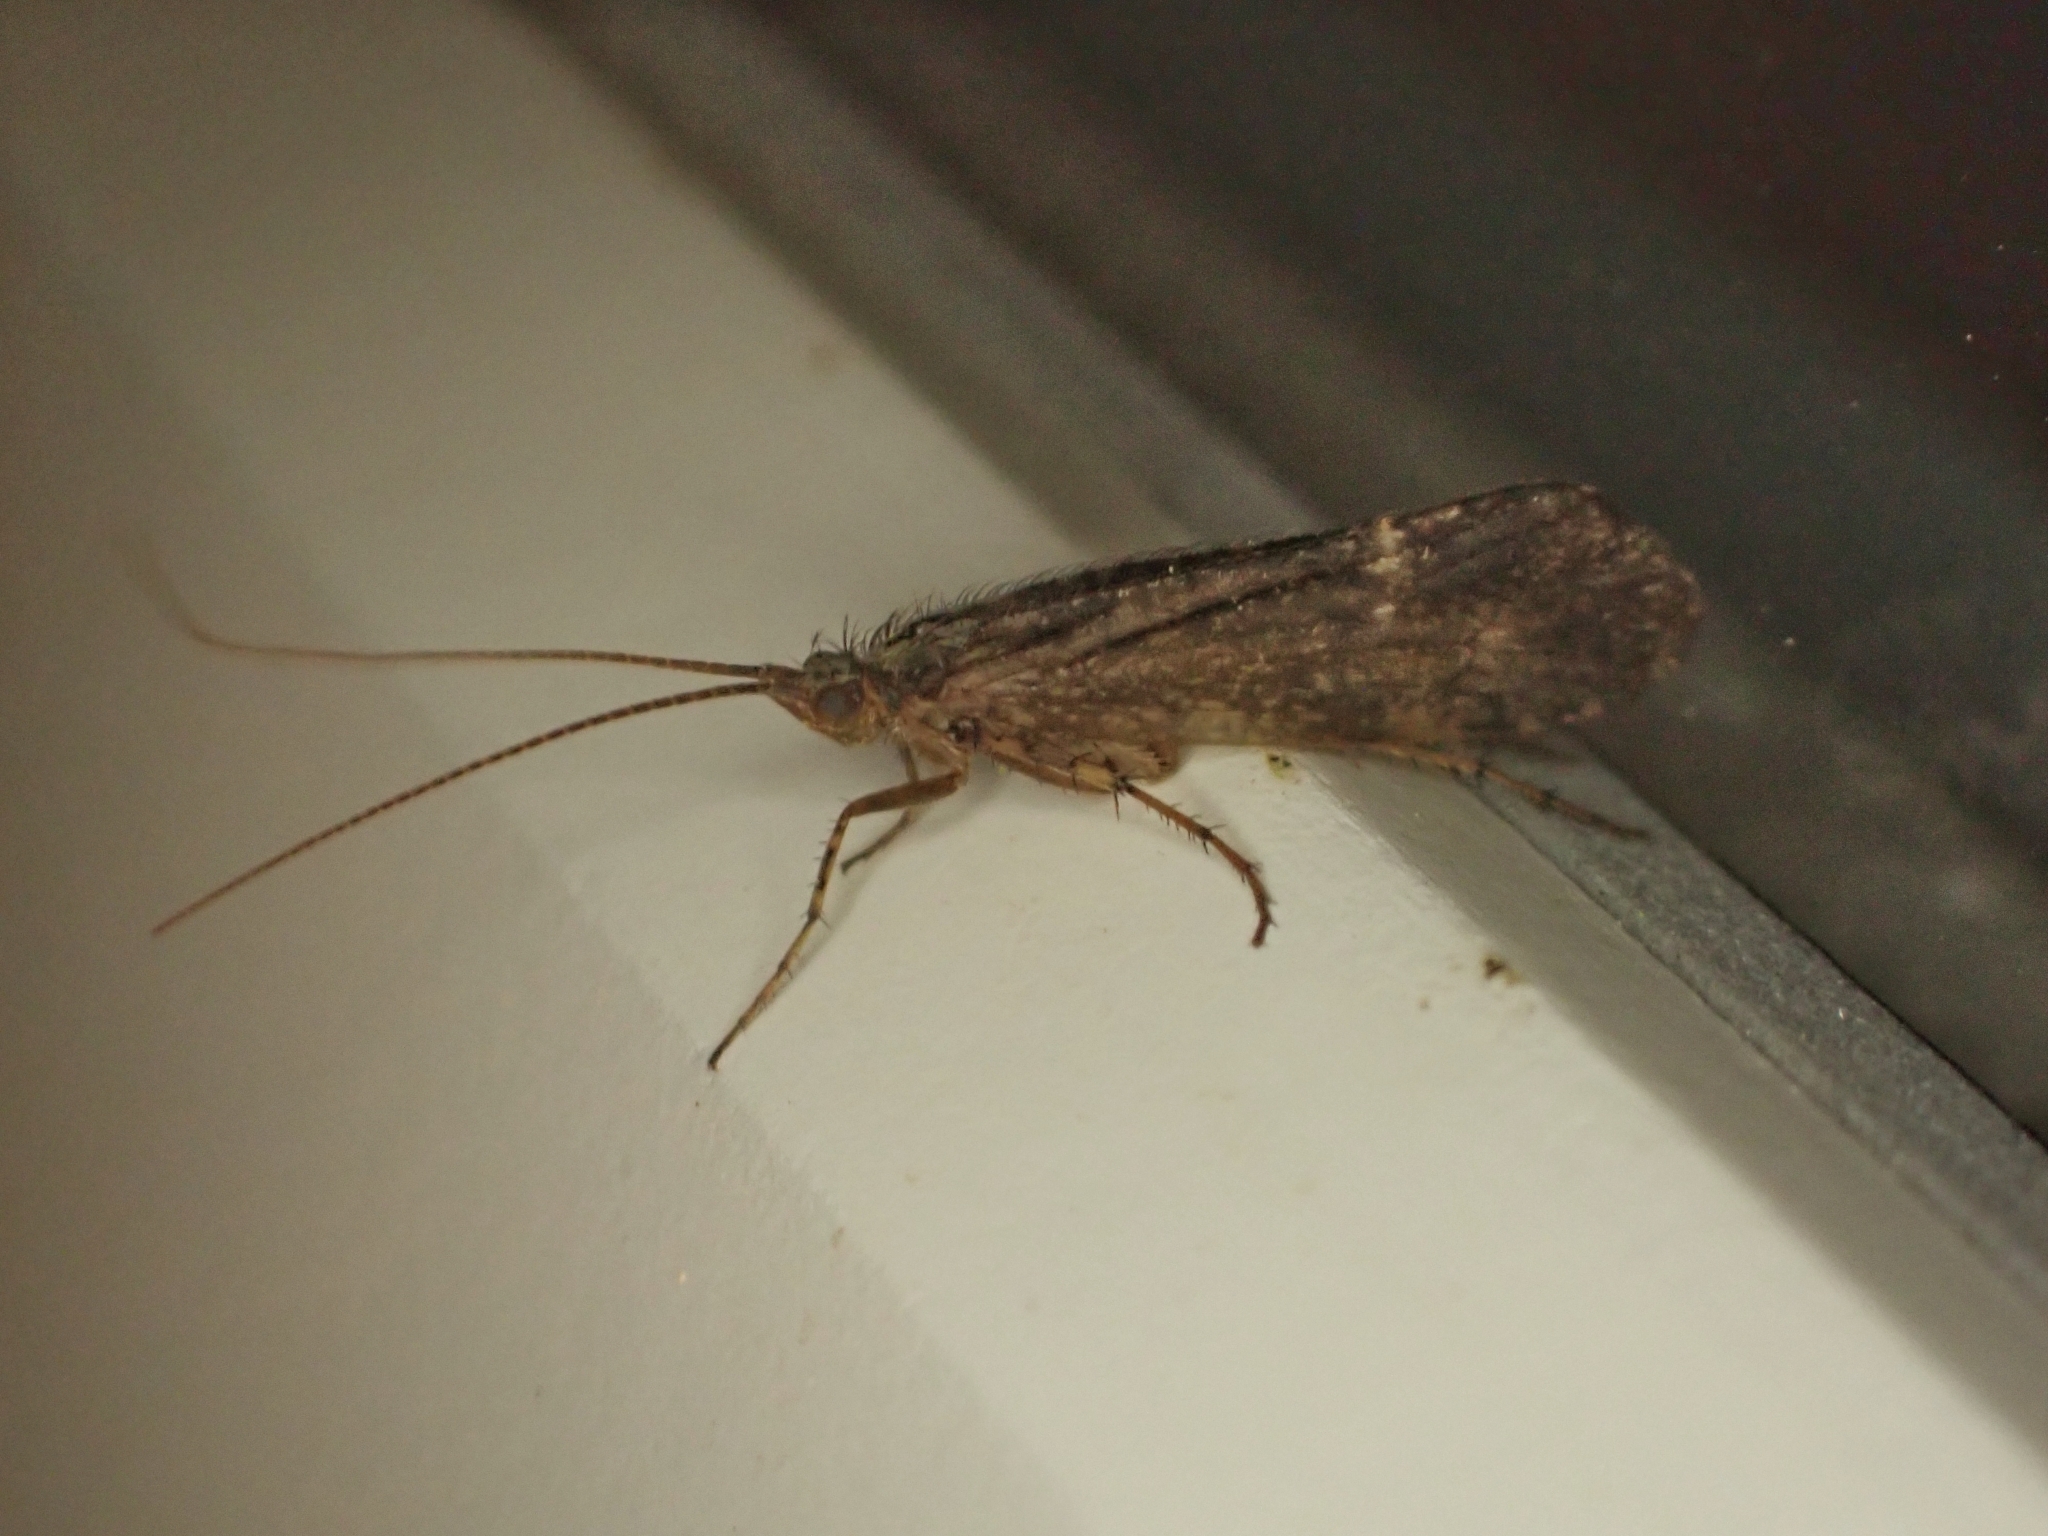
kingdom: Animalia
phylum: Arthropoda
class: Insecta
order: Trichoptera
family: Limnephilidae
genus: Limnephilus
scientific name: Limnephilus sparsus
